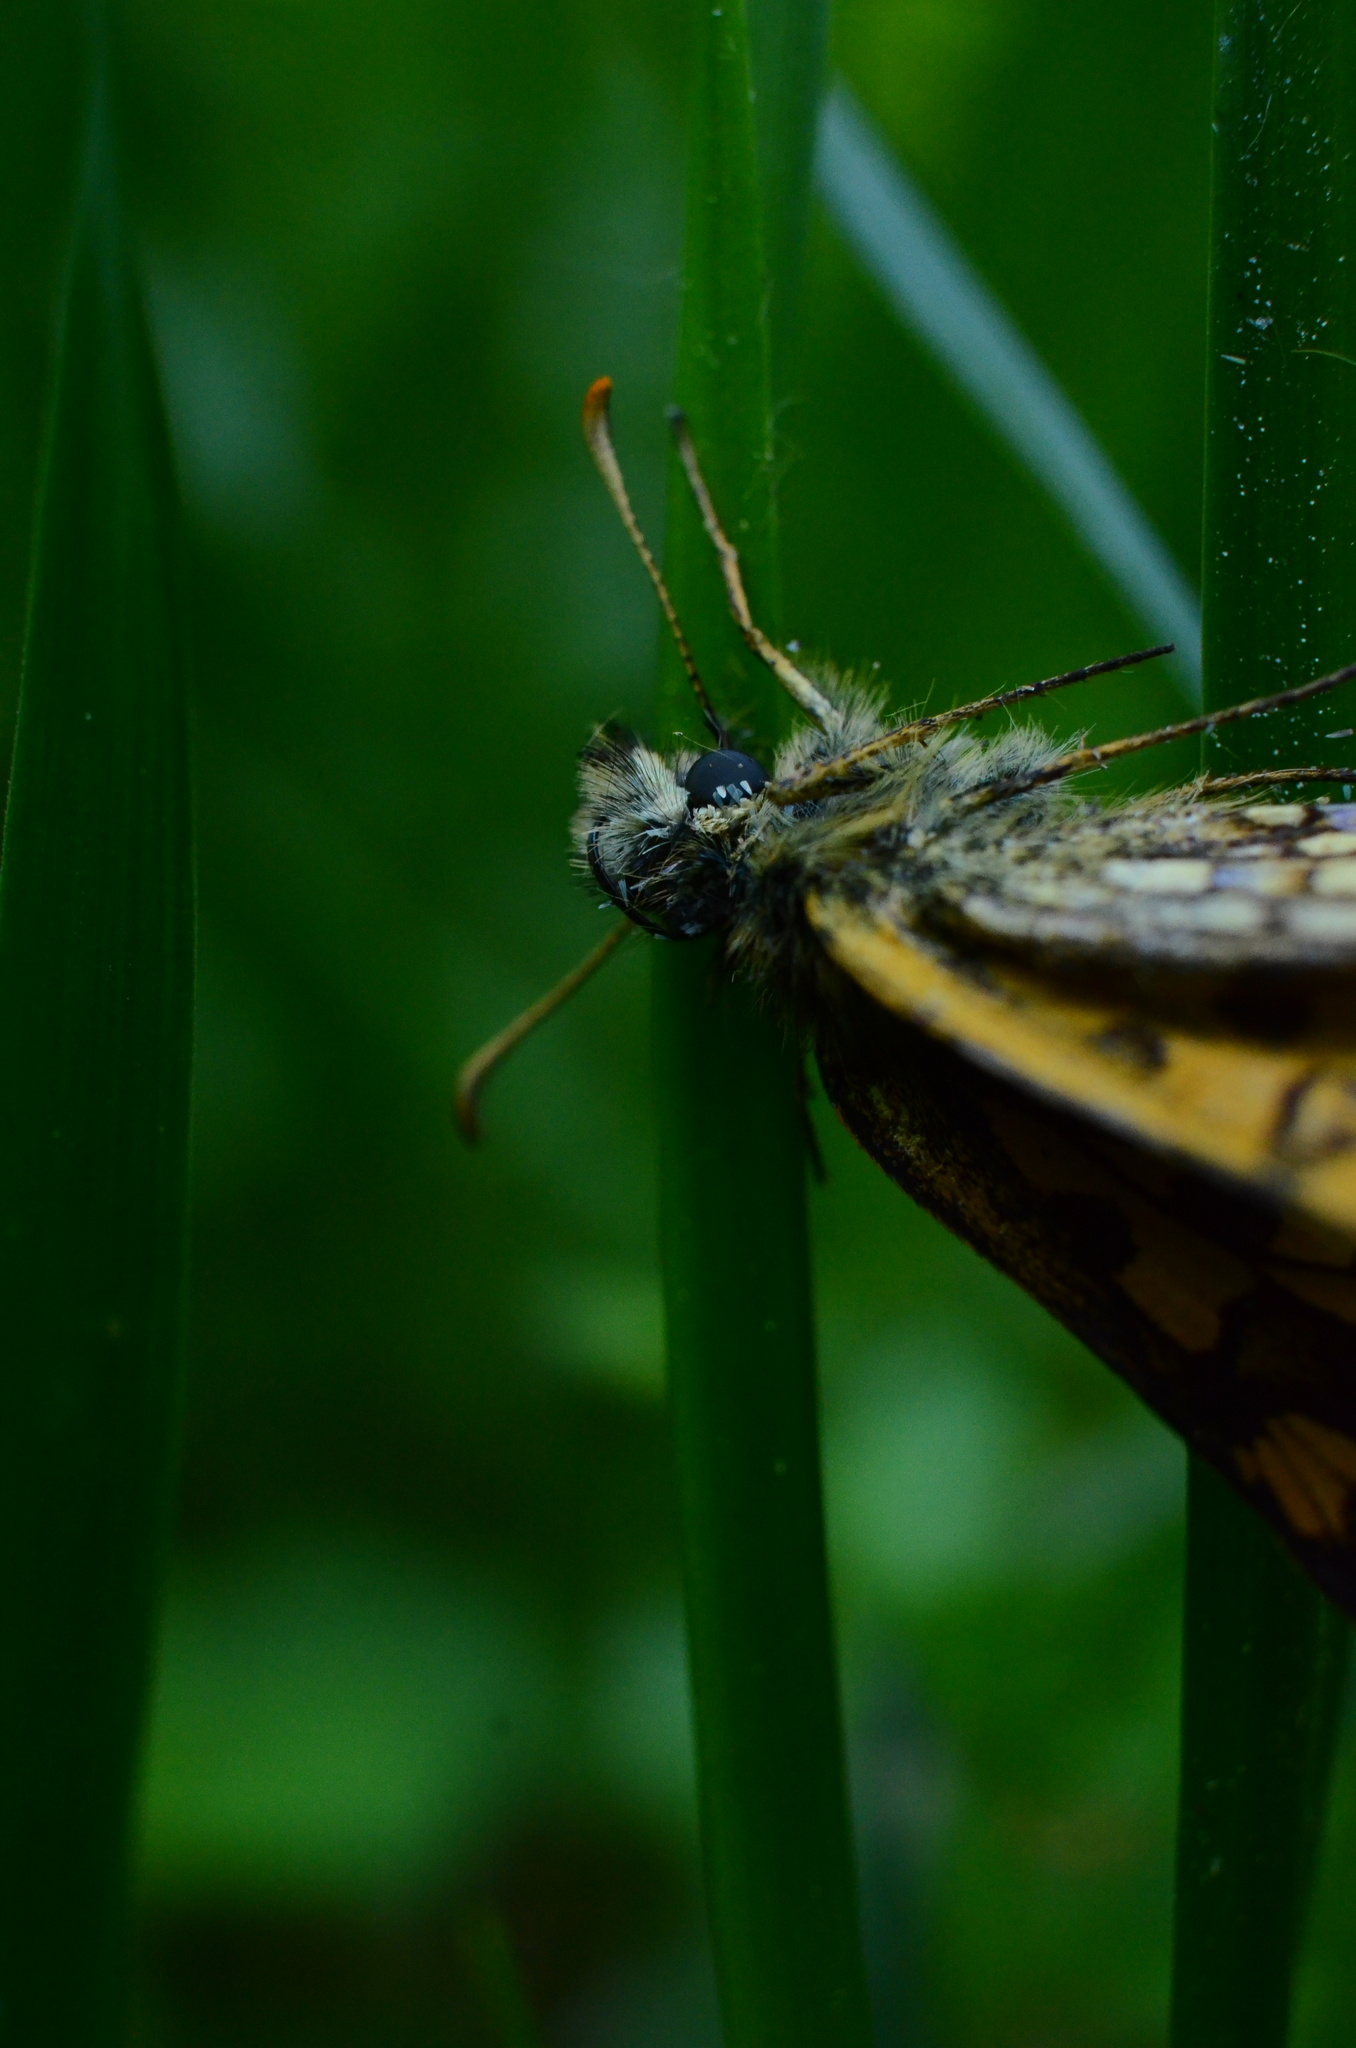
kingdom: Animalia
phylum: Arthropoda
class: Insecta
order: Lepidoptera
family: Hesperiidae
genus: Carterocephalus
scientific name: Carterocephalus palaemon
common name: Chequered skipper
